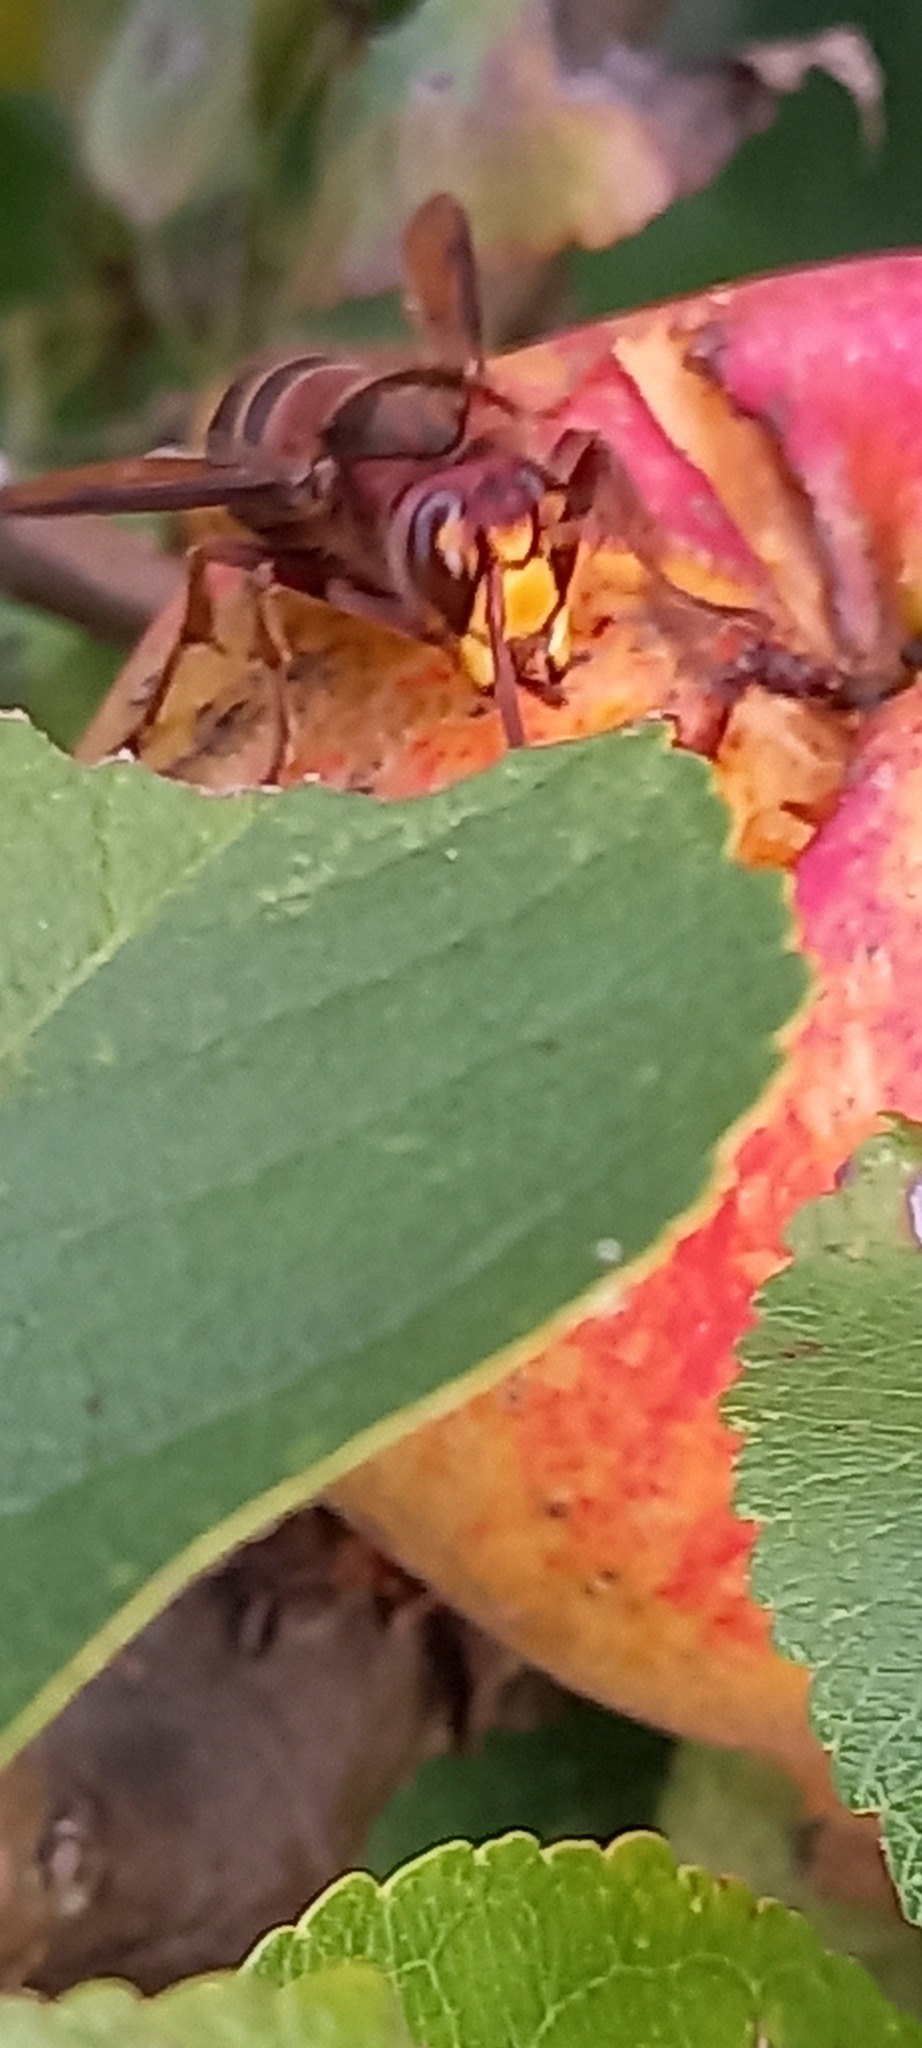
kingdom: Animalia
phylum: Arthropoda
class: Insecta
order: Hymenoptera
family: Vespidae
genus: Vespa
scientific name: Vespa crabro
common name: Hornet
